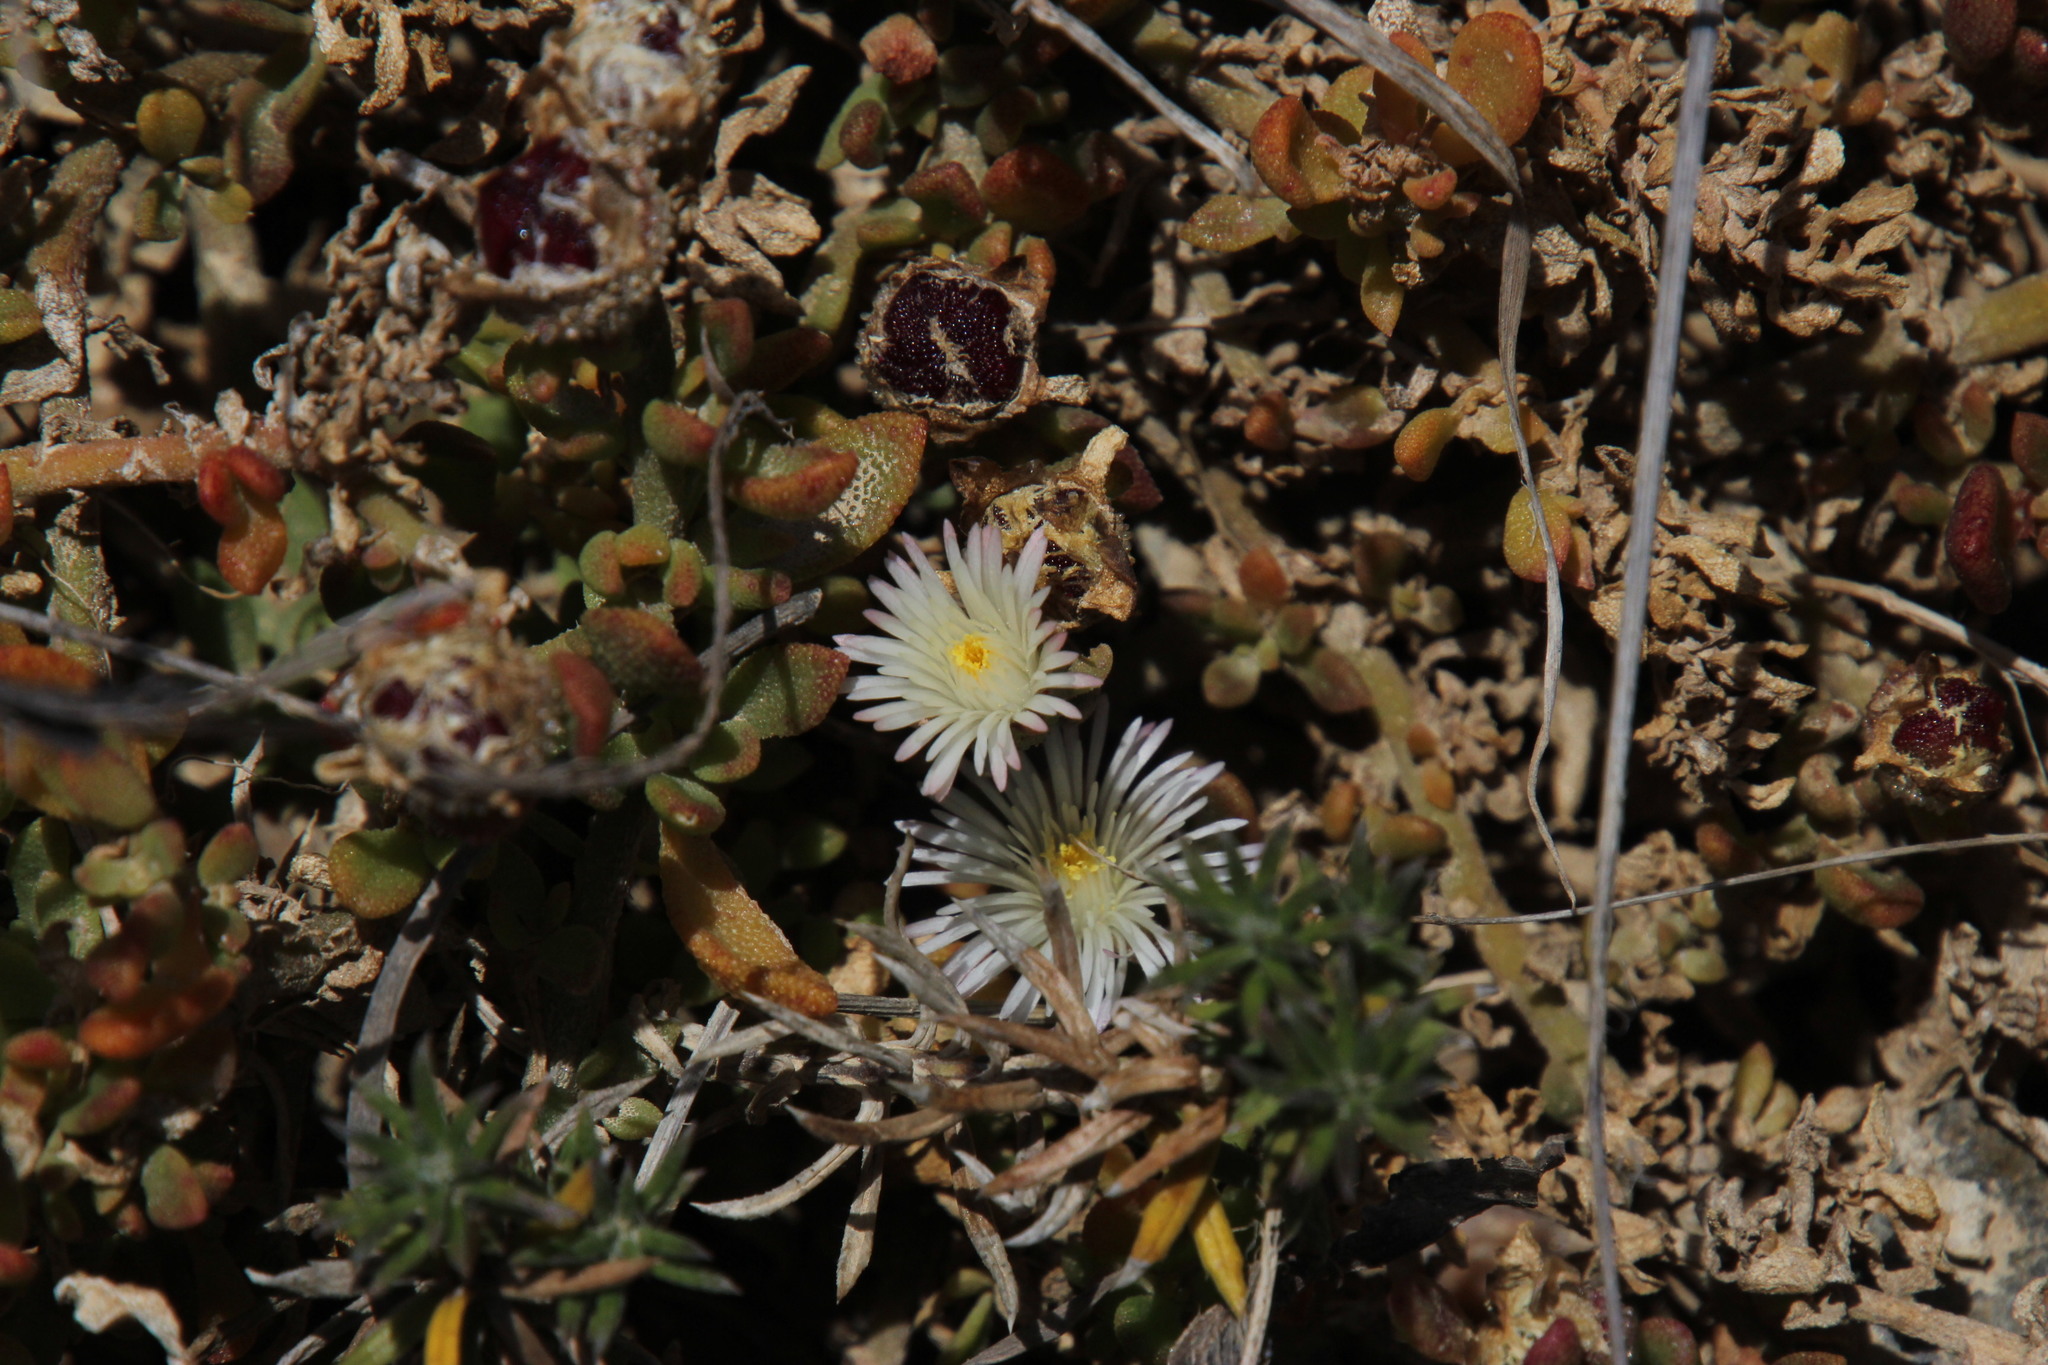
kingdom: Plantae
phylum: Tracheophyta
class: Magnoliopsida
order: Caryophyllales
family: Aizoaceae
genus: Mesembryanthemum
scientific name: Mesembryanthemum paulum
